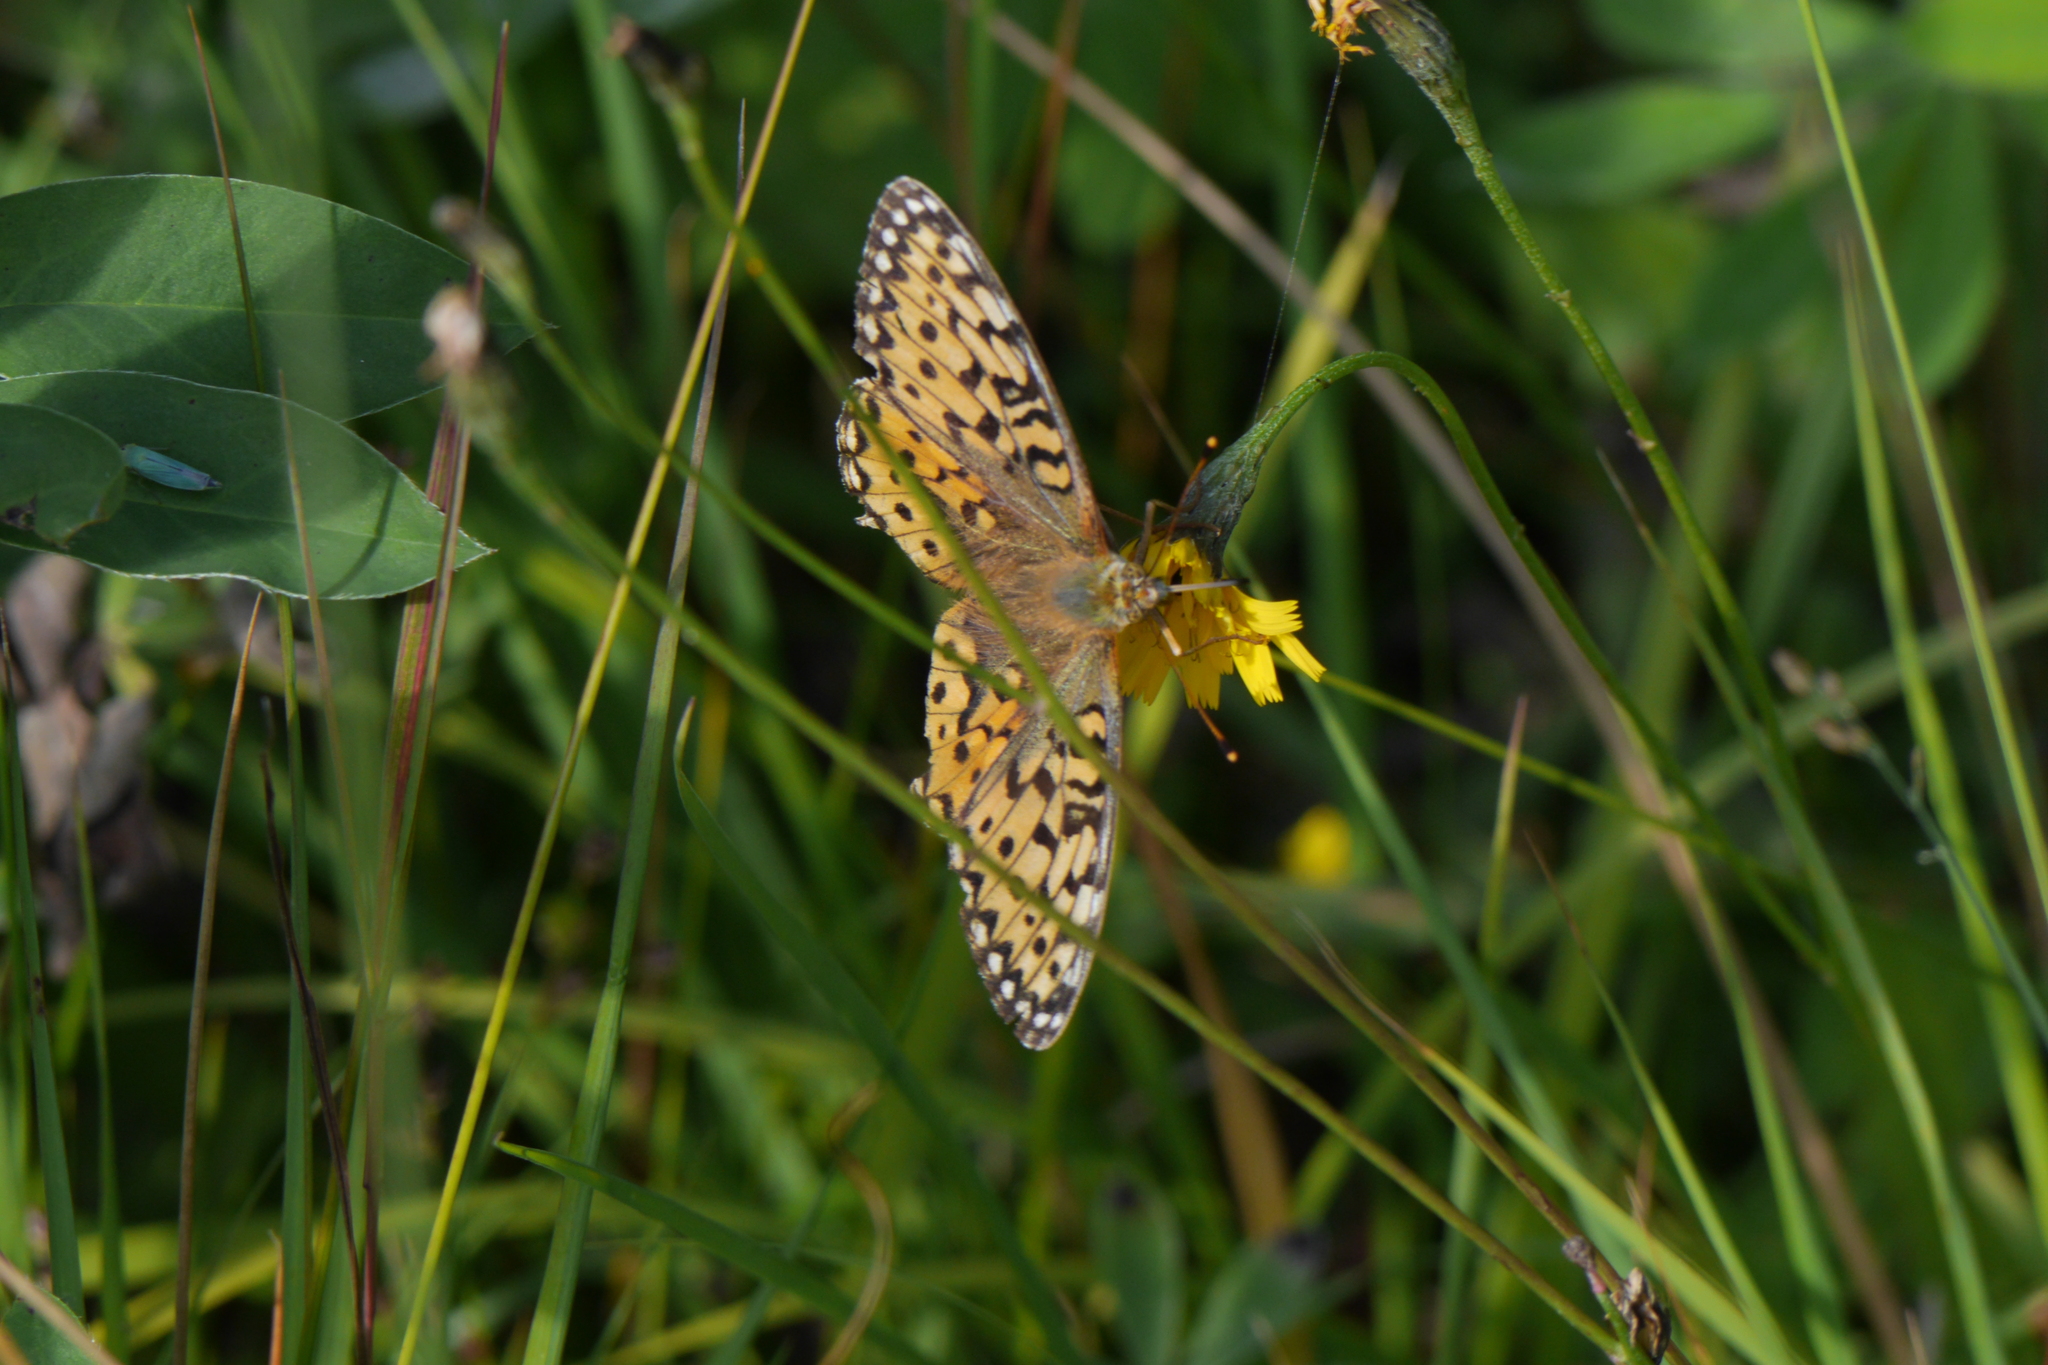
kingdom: Animalia
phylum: Arthropoda
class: Insecta
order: Lepidoptera
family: Nymphalidae
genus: Speyeria
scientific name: Speyeria aglaja
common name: Dark green fritillary
